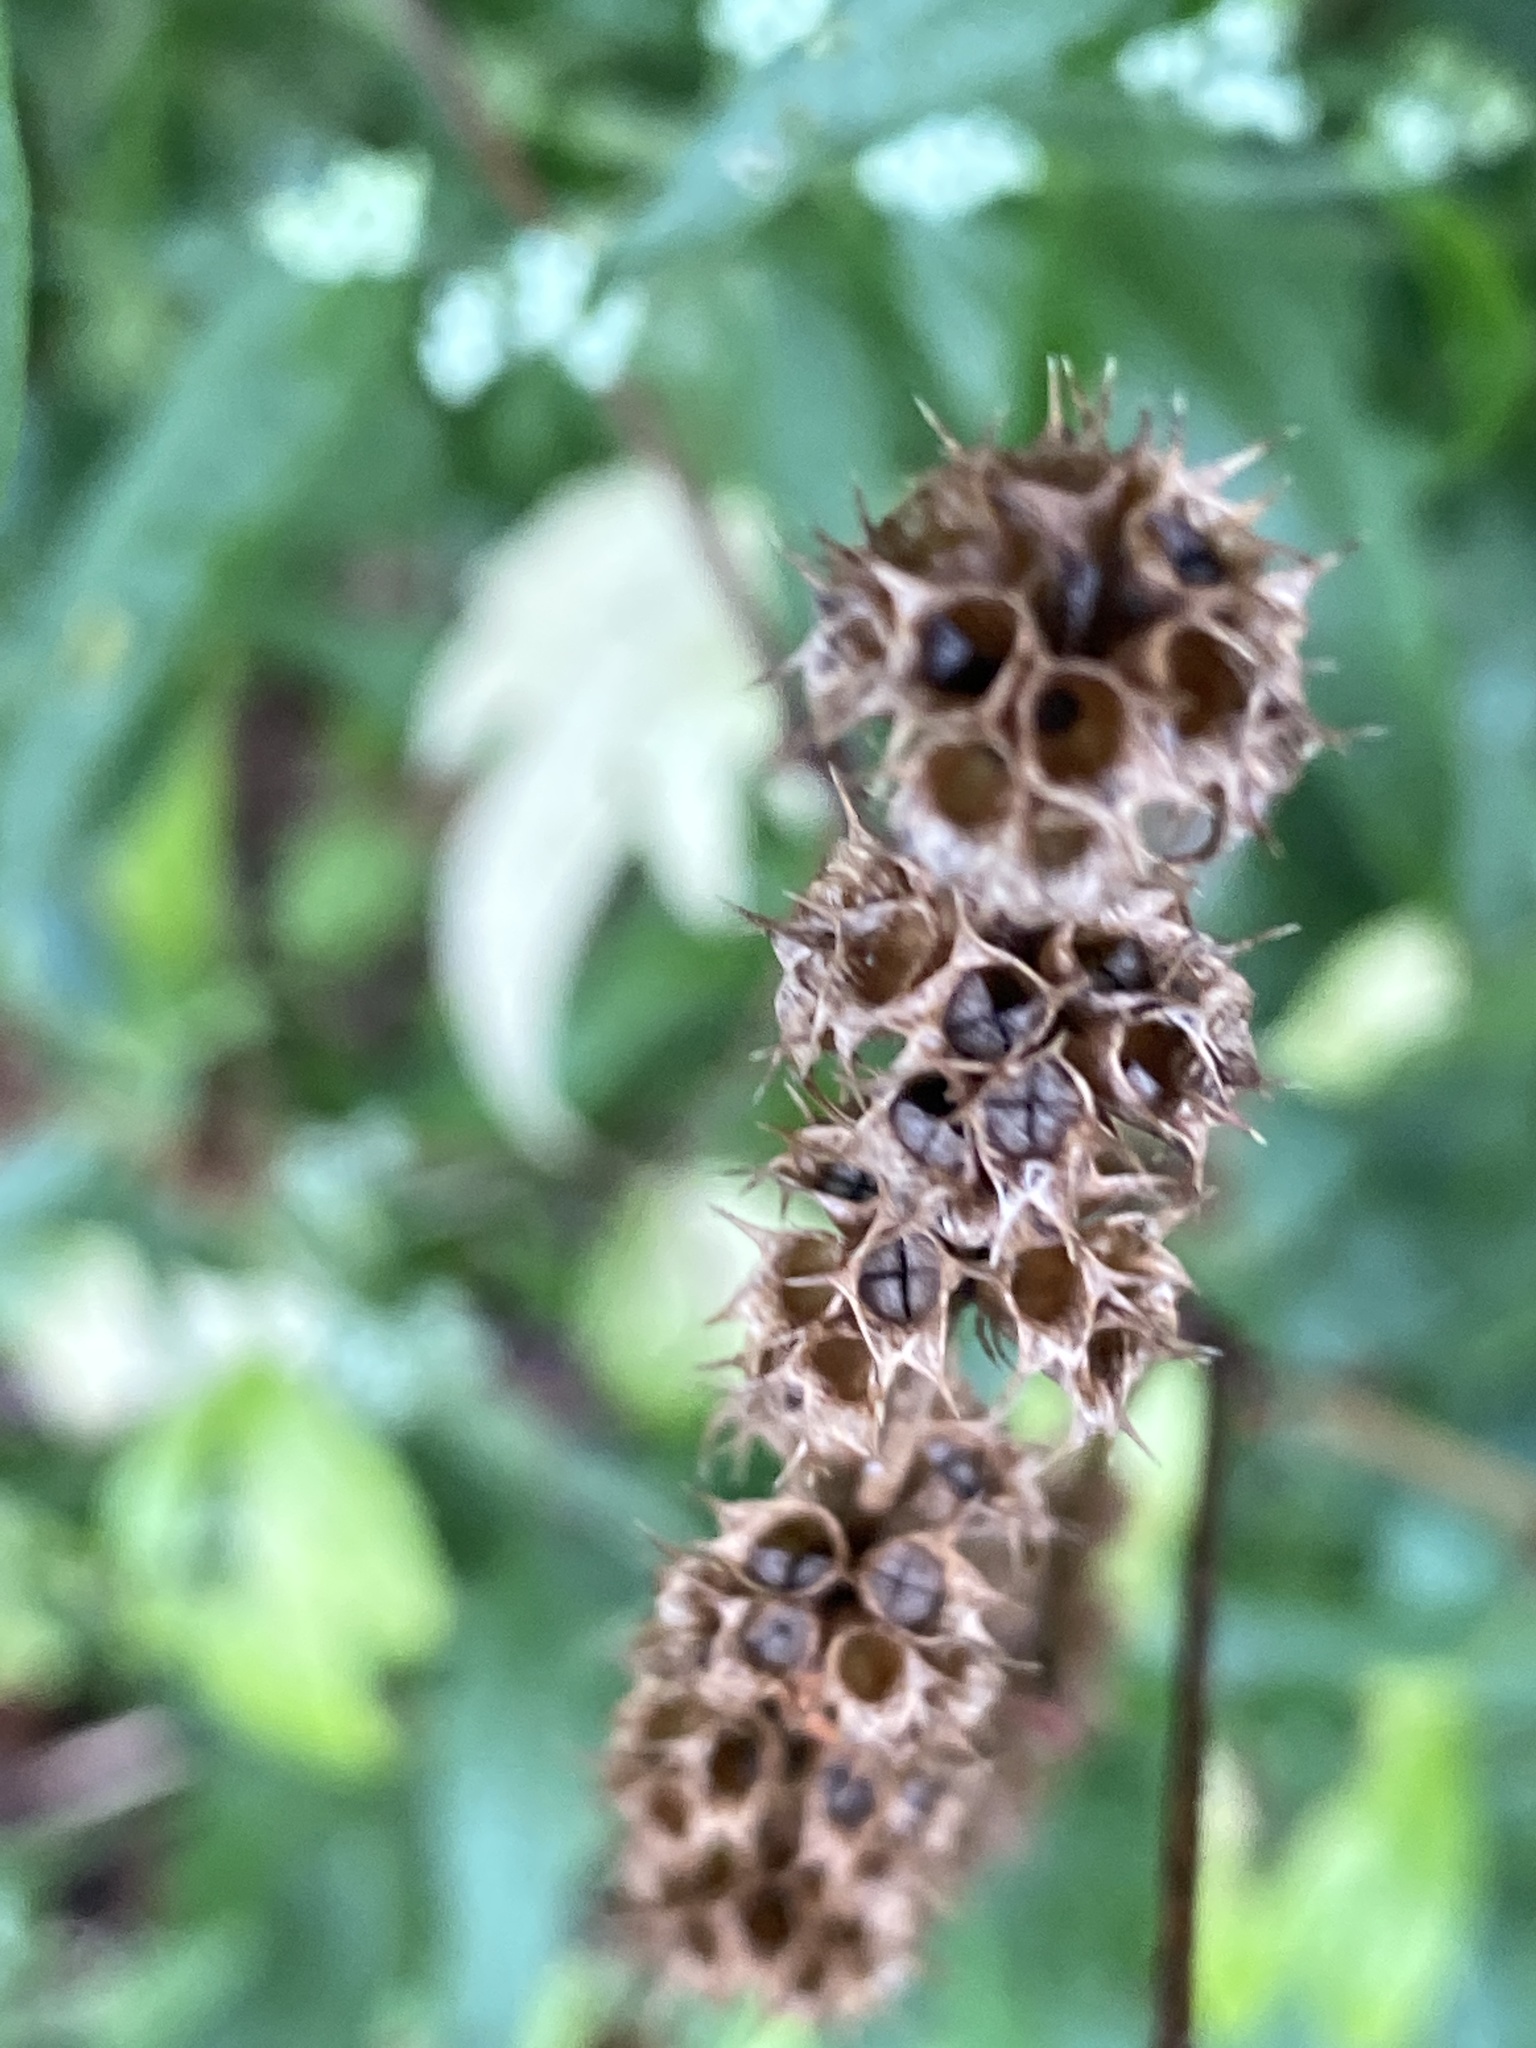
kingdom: Plantae
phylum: Tracheophyta
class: Magnoliopsida
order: Lamiales
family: Lamiaceae
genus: Leonurus
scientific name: Leonurus cardiaca
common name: Motherwort
